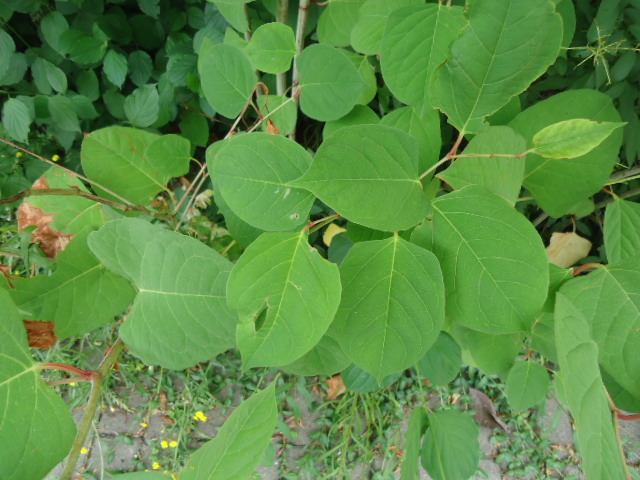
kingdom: Plantae
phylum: Tracheophyta
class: Magnoliopsida
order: Caryophyllales
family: Polygonaceae
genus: Reynoutria
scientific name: Reynoutria japonica
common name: Japanese knotweed
